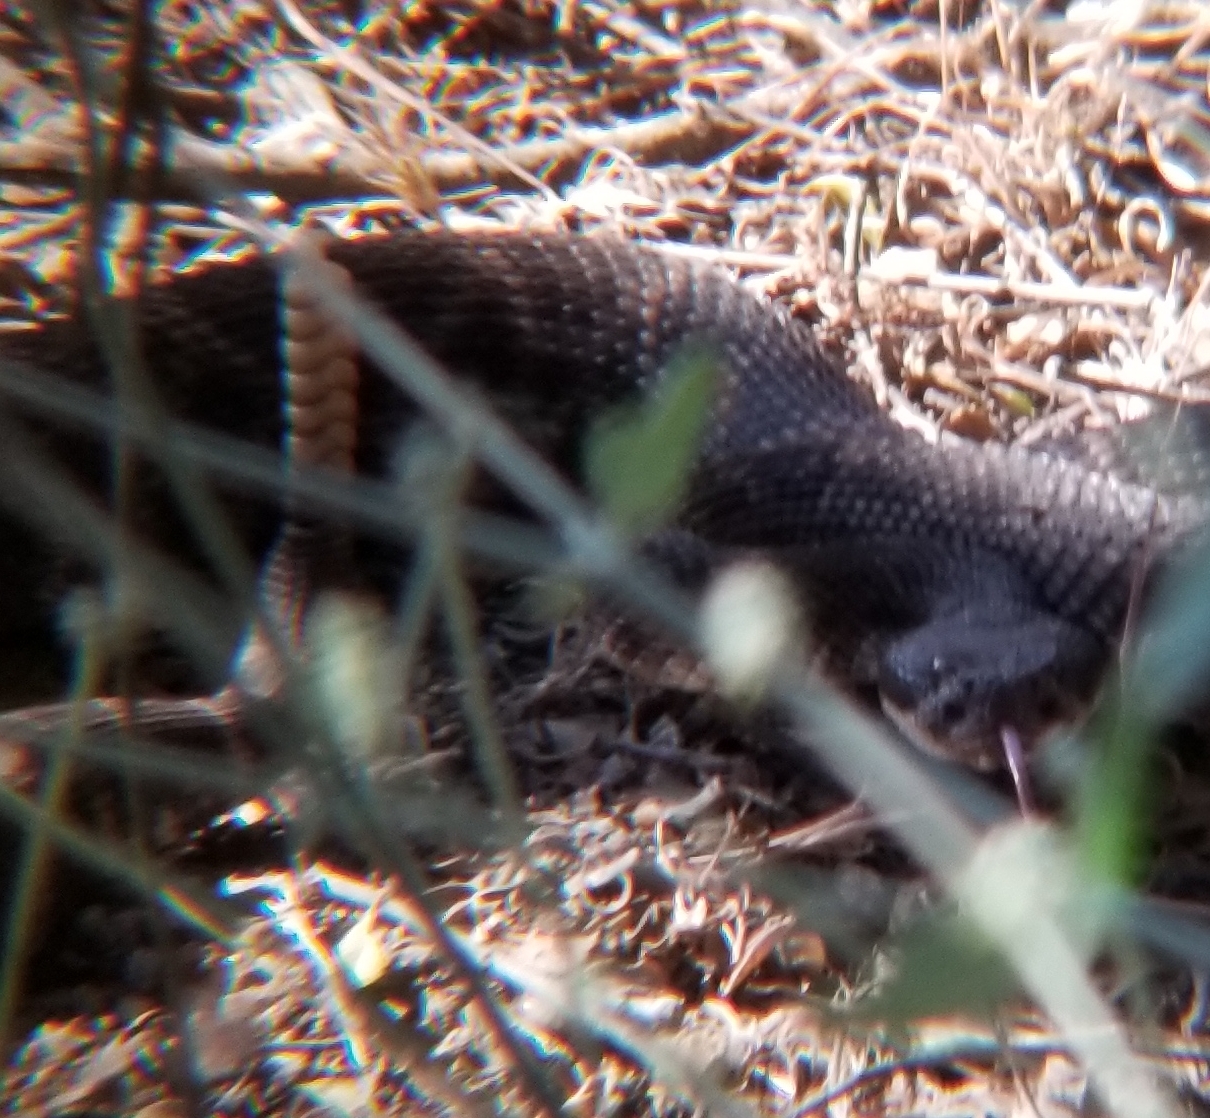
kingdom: Animalia
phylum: Chordata
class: Squamata
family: Viperidae
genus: Crotalus
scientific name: Crotalus oreganus
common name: Abyssus
